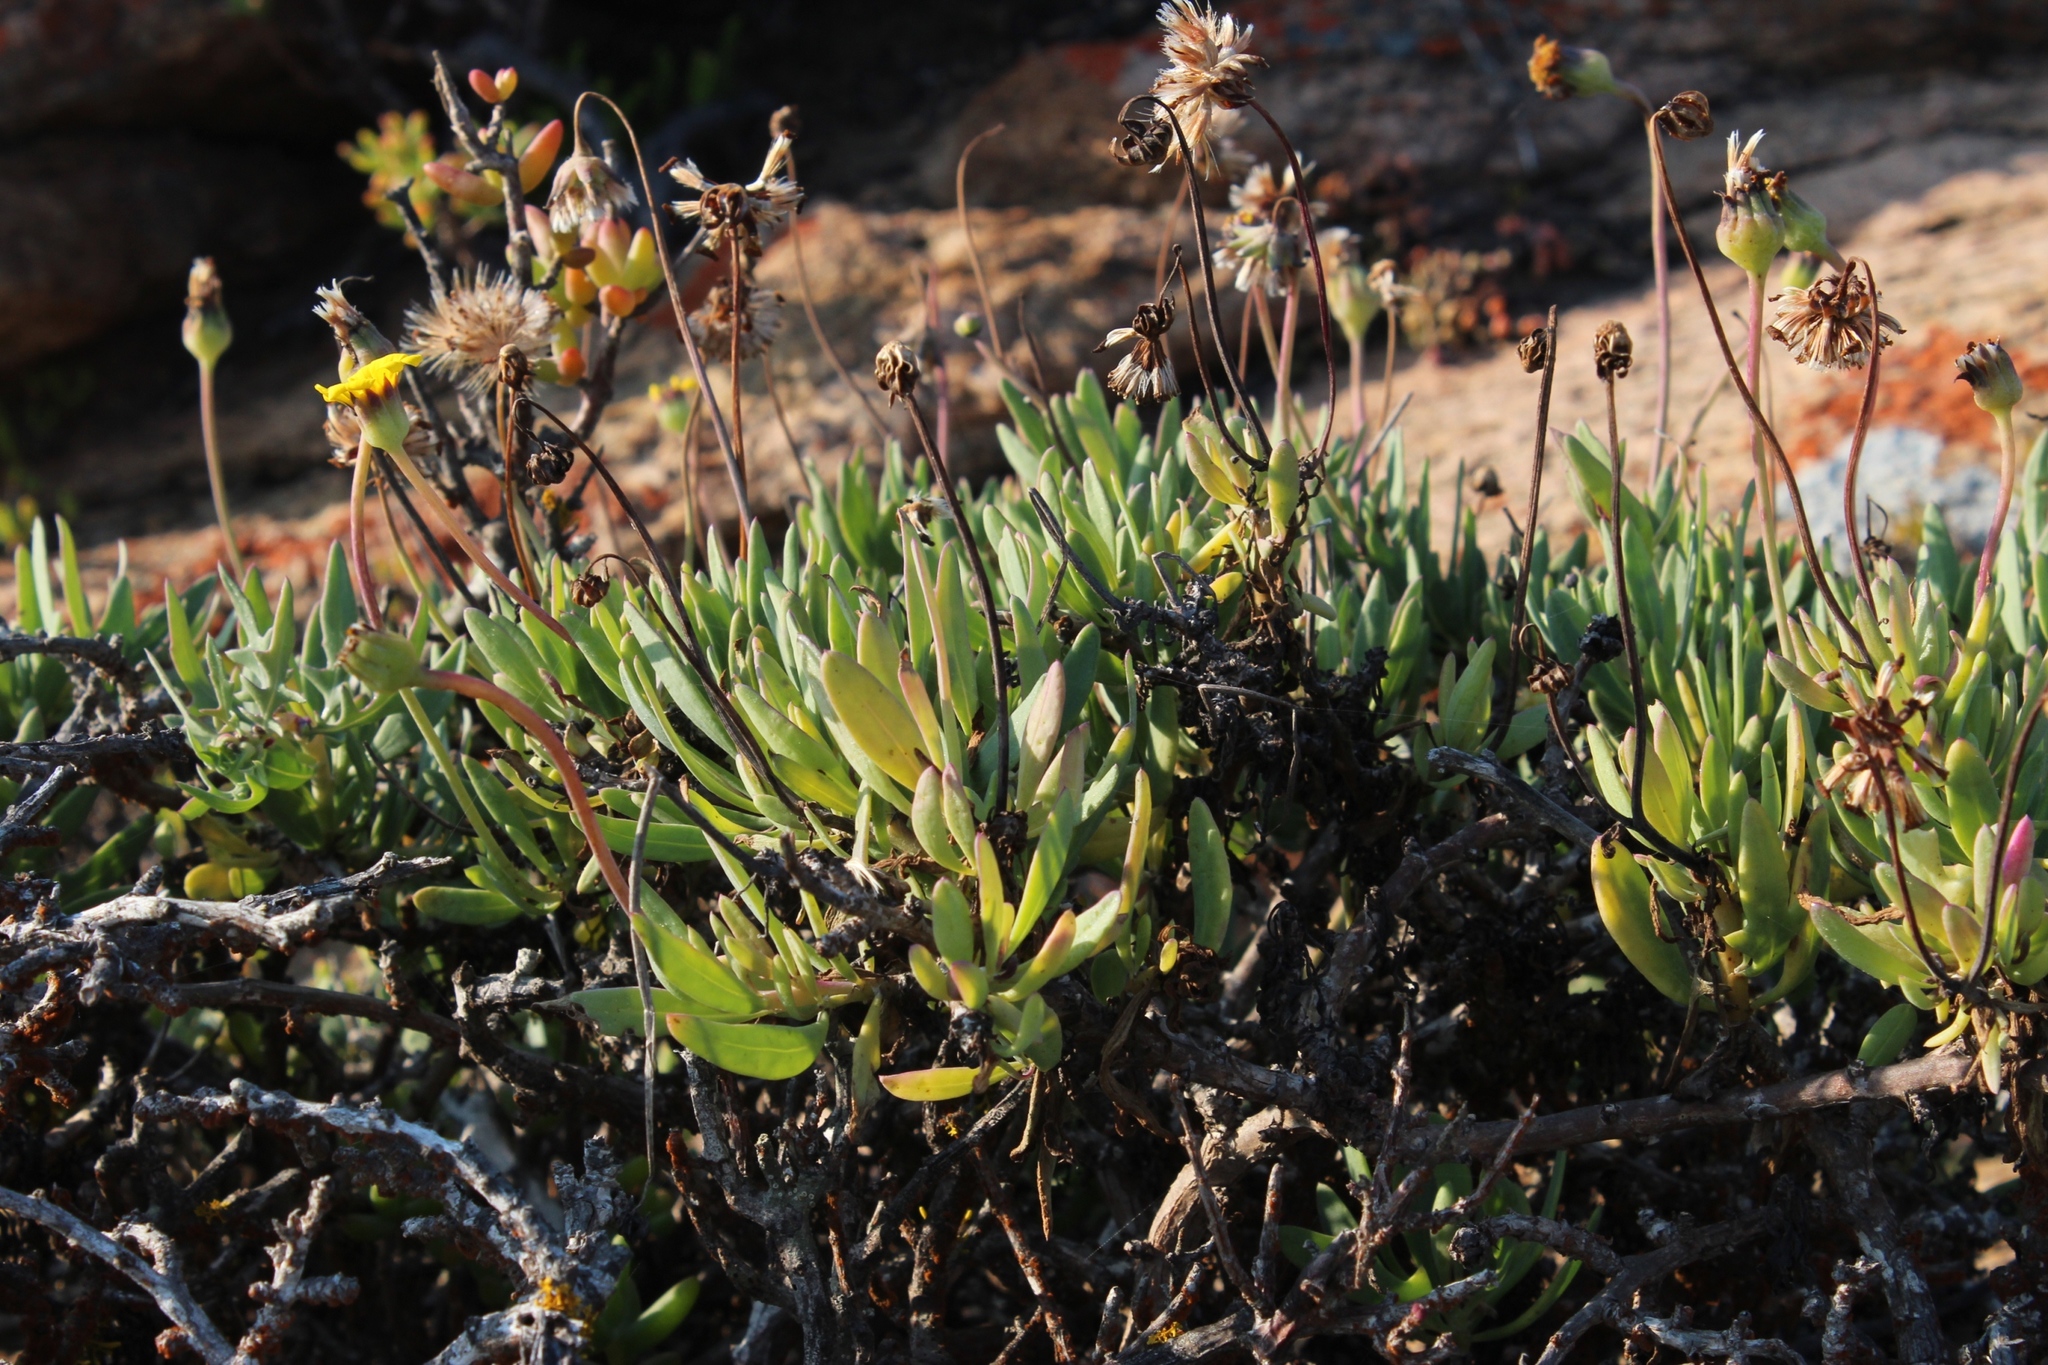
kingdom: Plantae
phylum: Tracheophyta
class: Magnoliopsida
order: Asterales
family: Asteraceae
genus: Othonna
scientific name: Othonna coronopifolia
